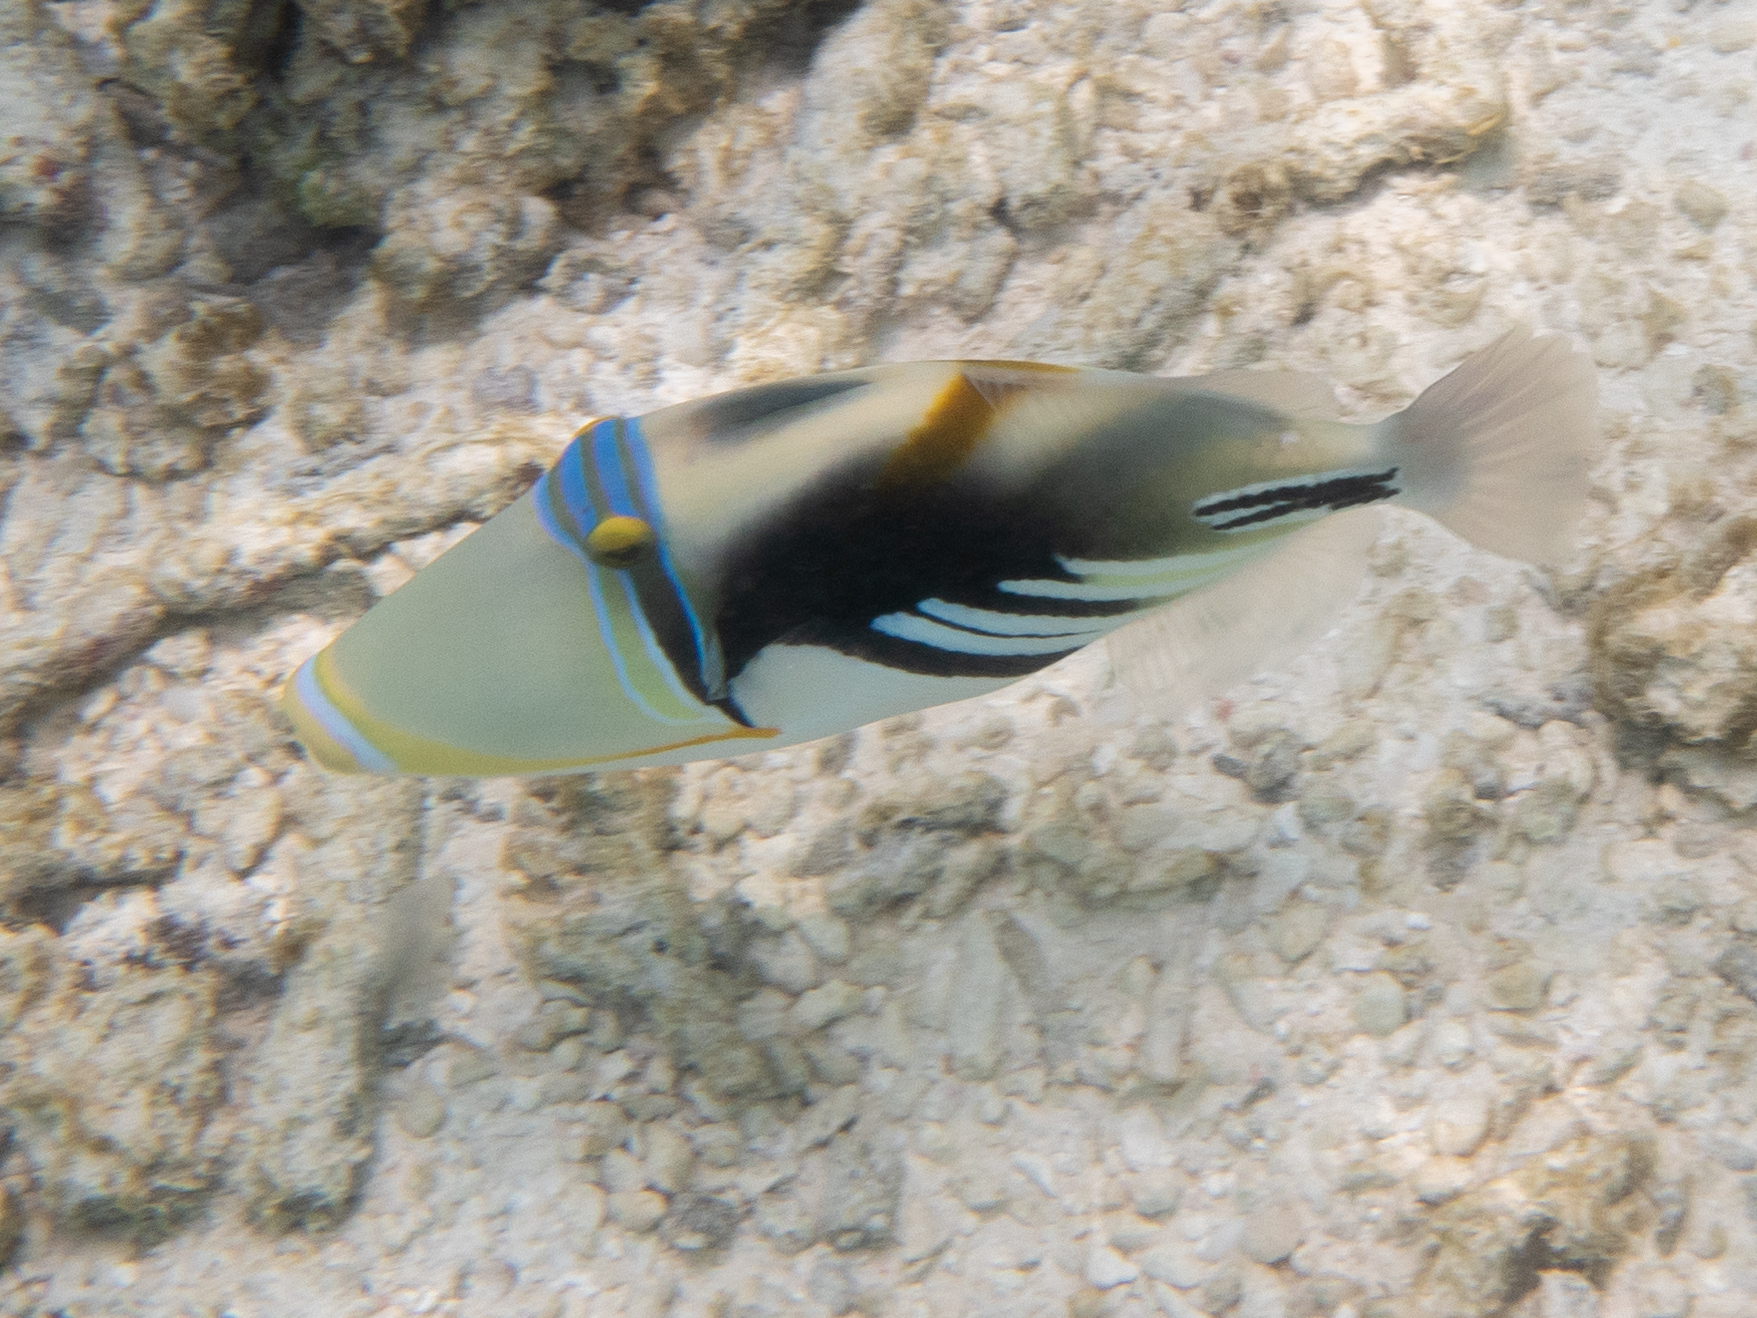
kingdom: Animalia
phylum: Chordata
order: Tetraodontiformes
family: Balistidae
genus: Rhinecanthus
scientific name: Rhinecanthus aculeatus
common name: White-banded triggerfish
